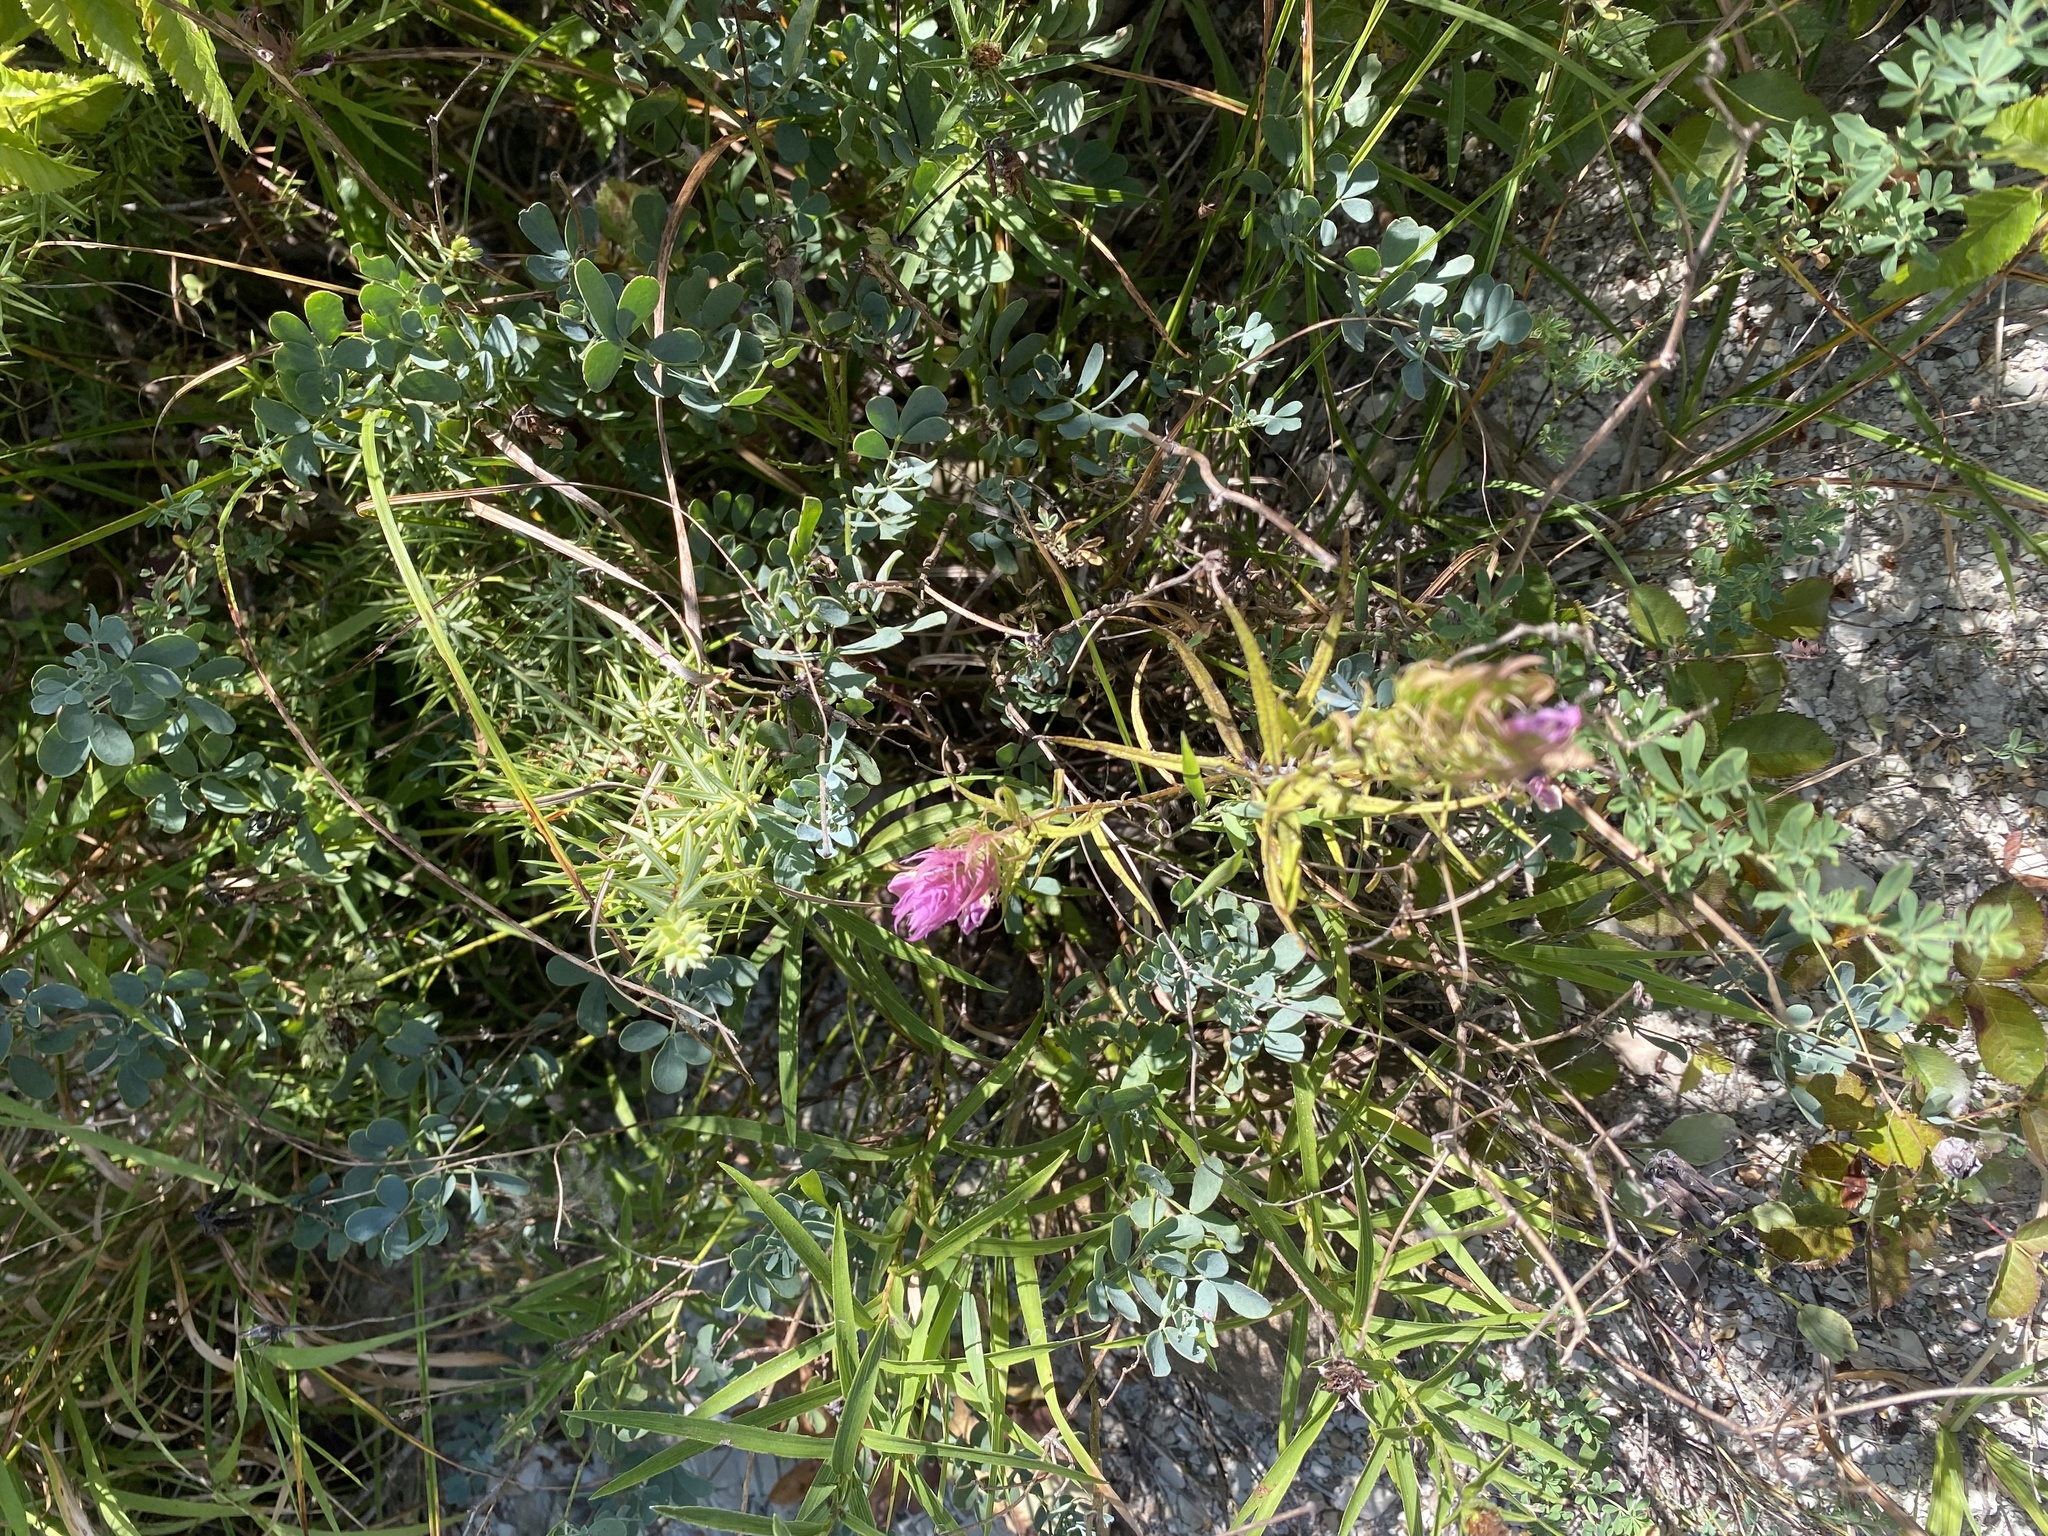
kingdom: Plantae
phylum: Tracheophyta
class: Magnoliopsida
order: Fabales
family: Fabaceae
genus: Coronilla
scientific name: Coronilla coronata
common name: Scorpion-vetch
